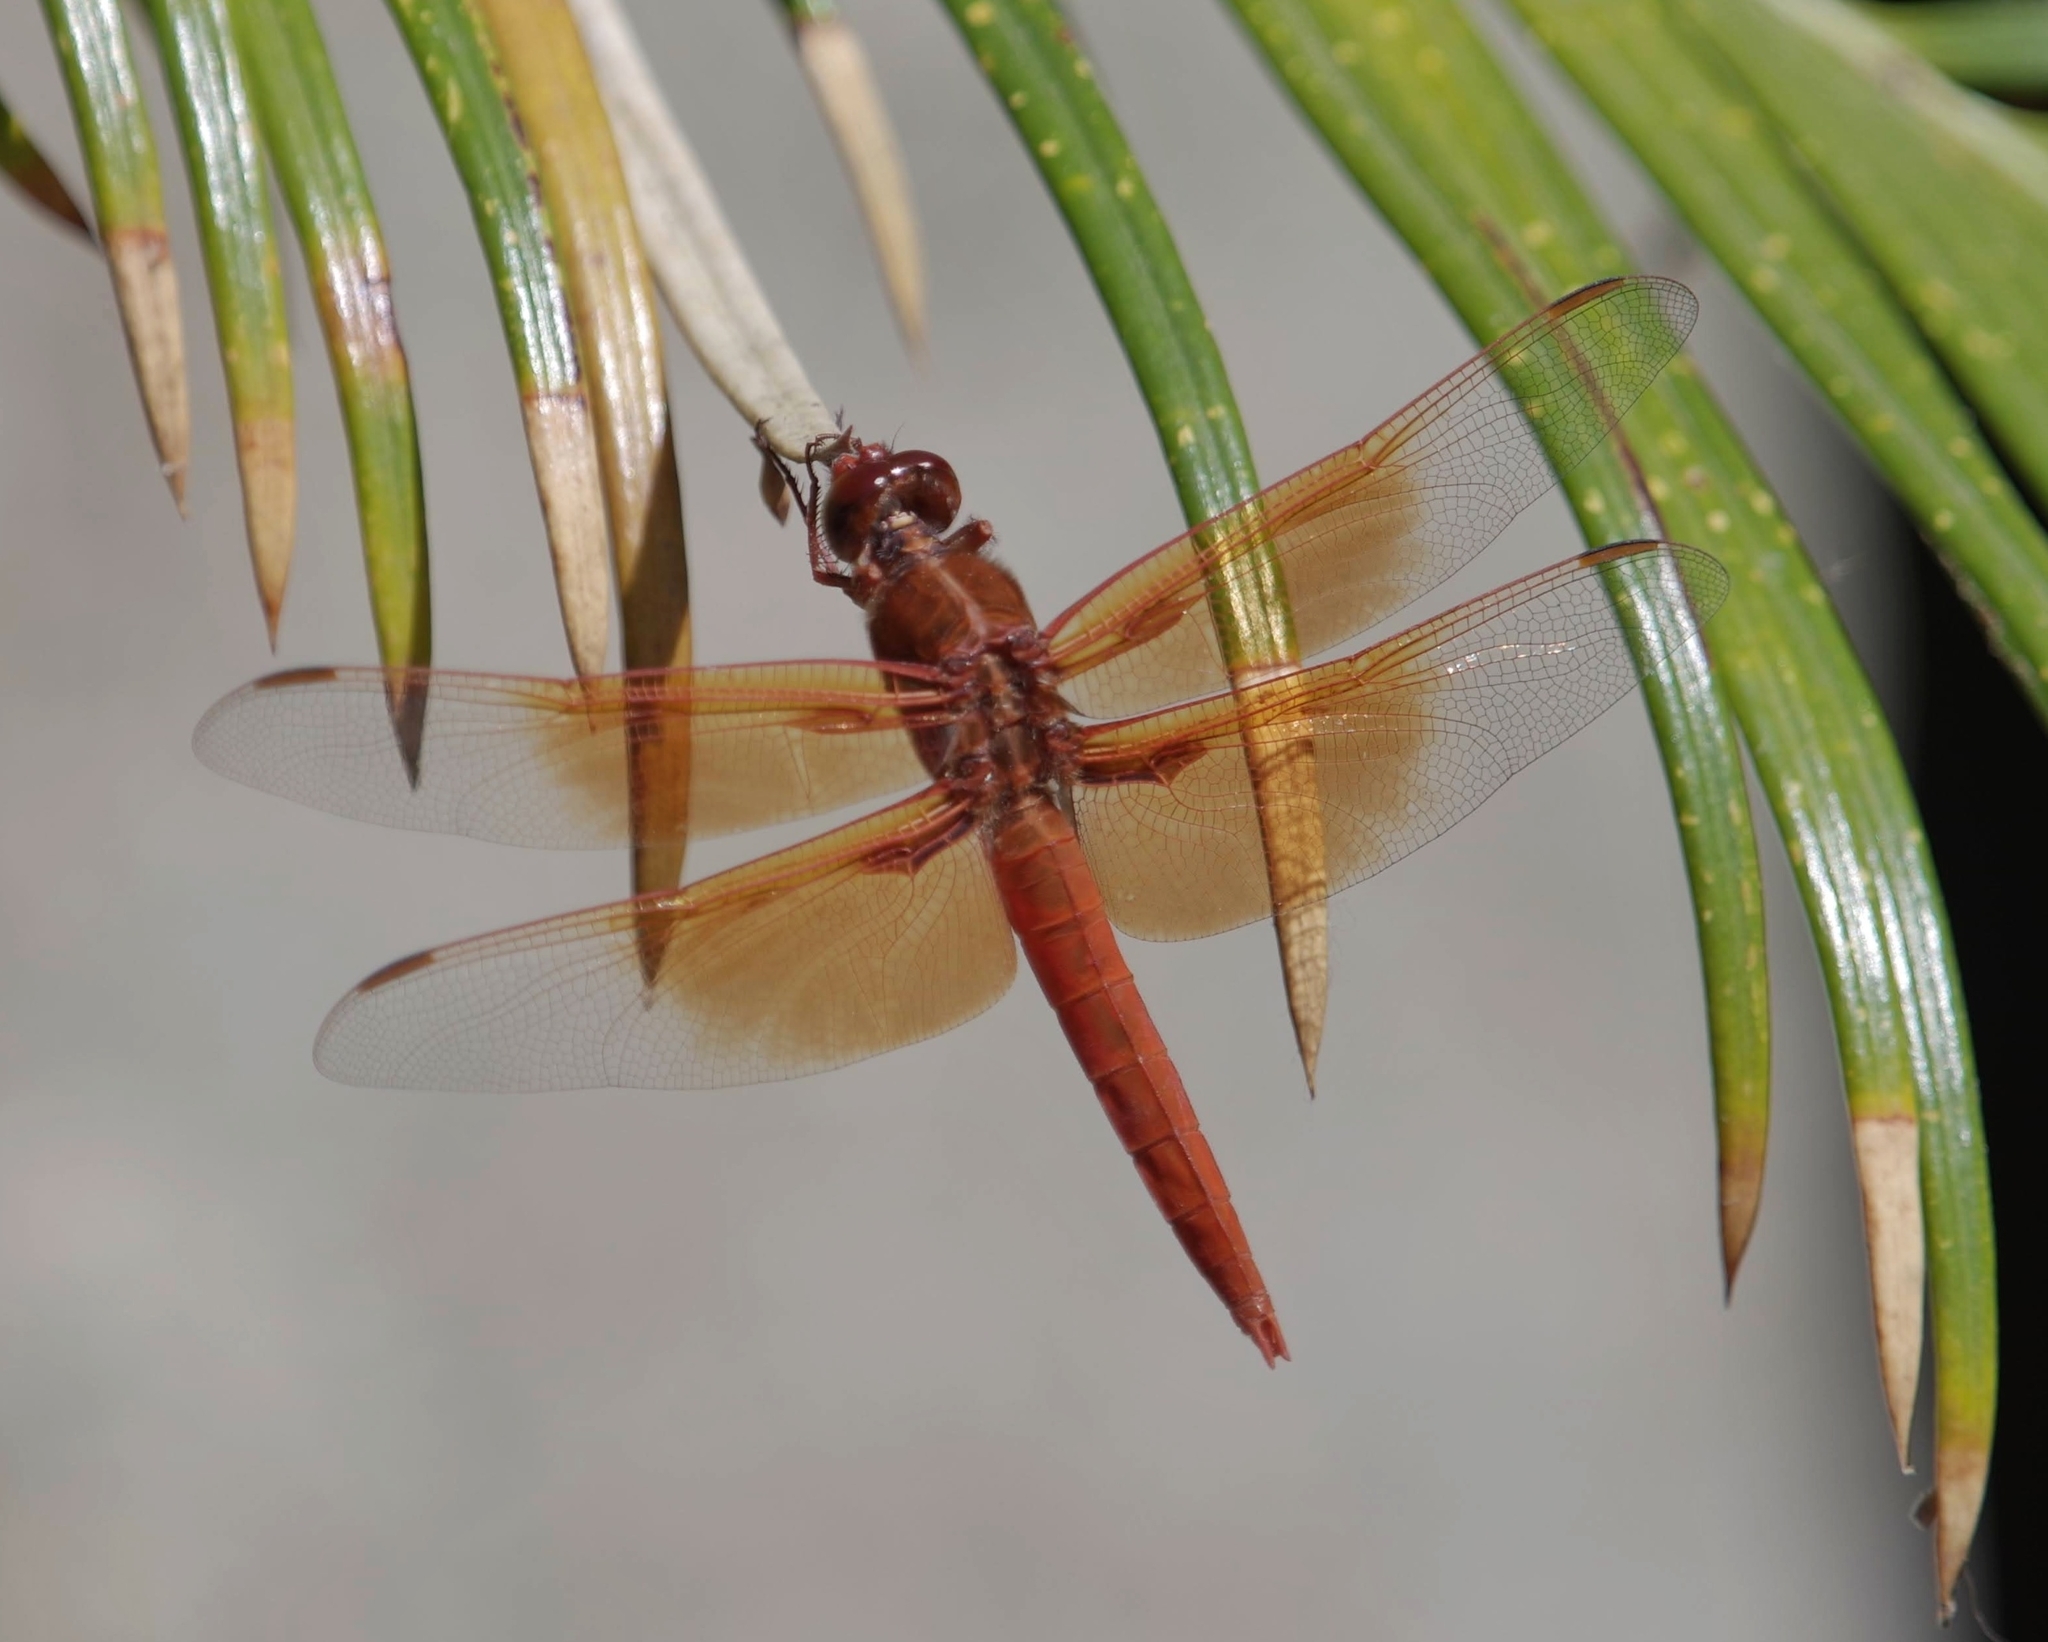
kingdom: Animalia
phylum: Arthropoda
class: Insecta
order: Odonata
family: Libellulidae
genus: Libellula
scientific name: Libellula saturata
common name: Flame skimmer
